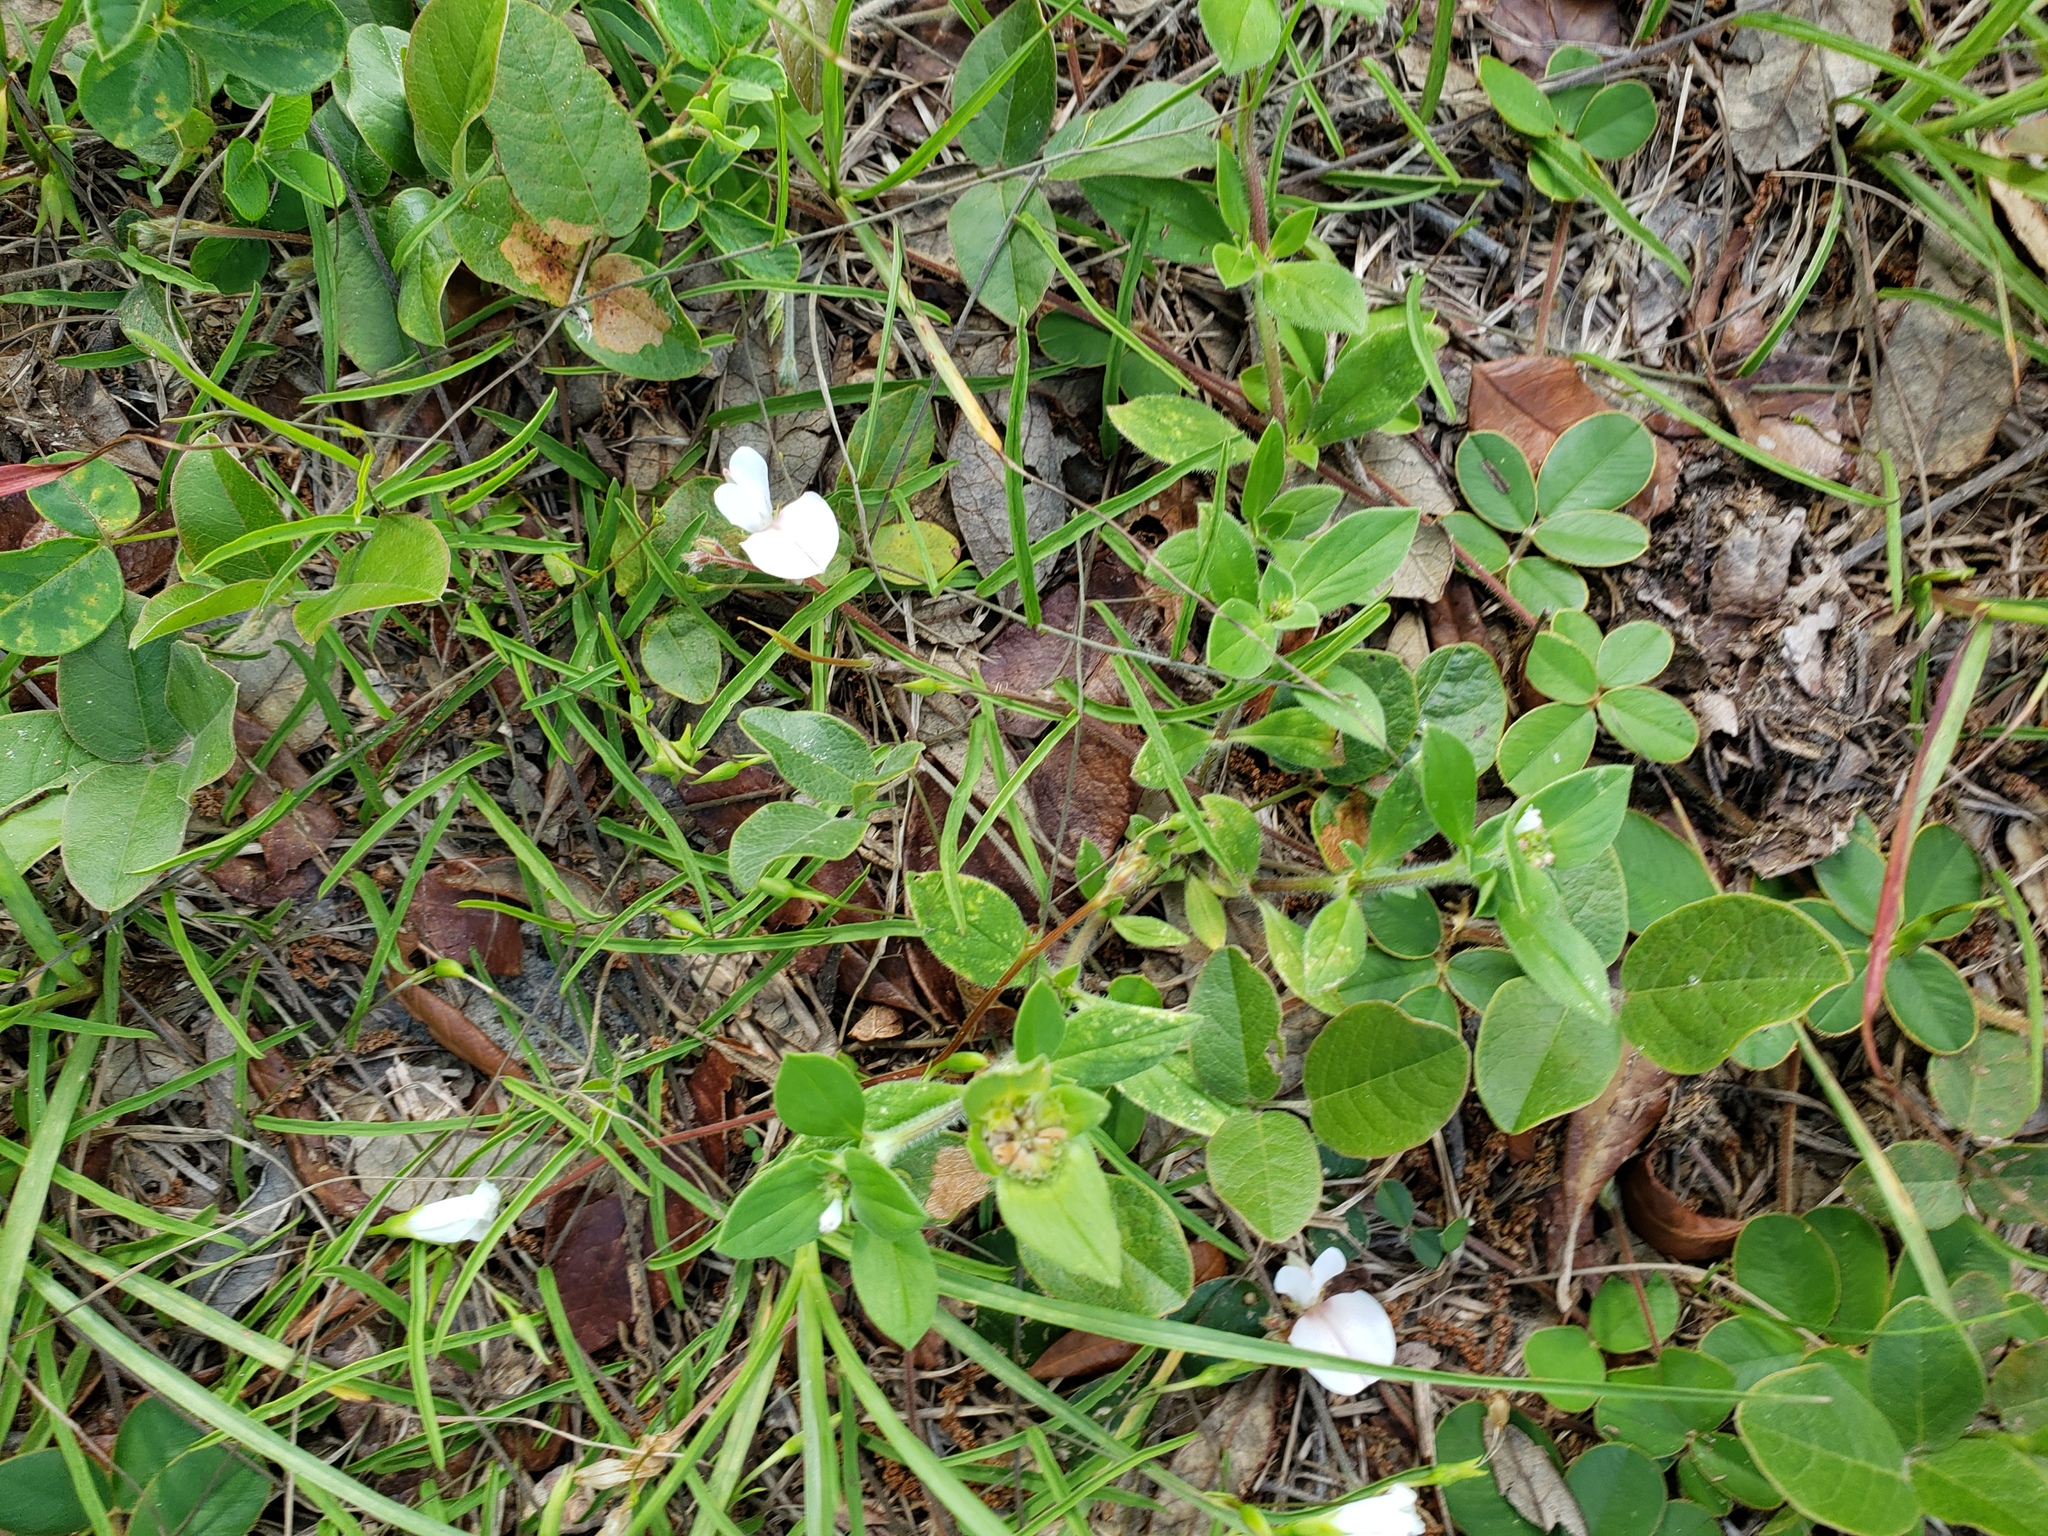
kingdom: Plantae
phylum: Tracheophyta
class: Magnoliopsida
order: Fabales
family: Fabaceae
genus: Tephrosia
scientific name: Tephrosia chrysophylla
